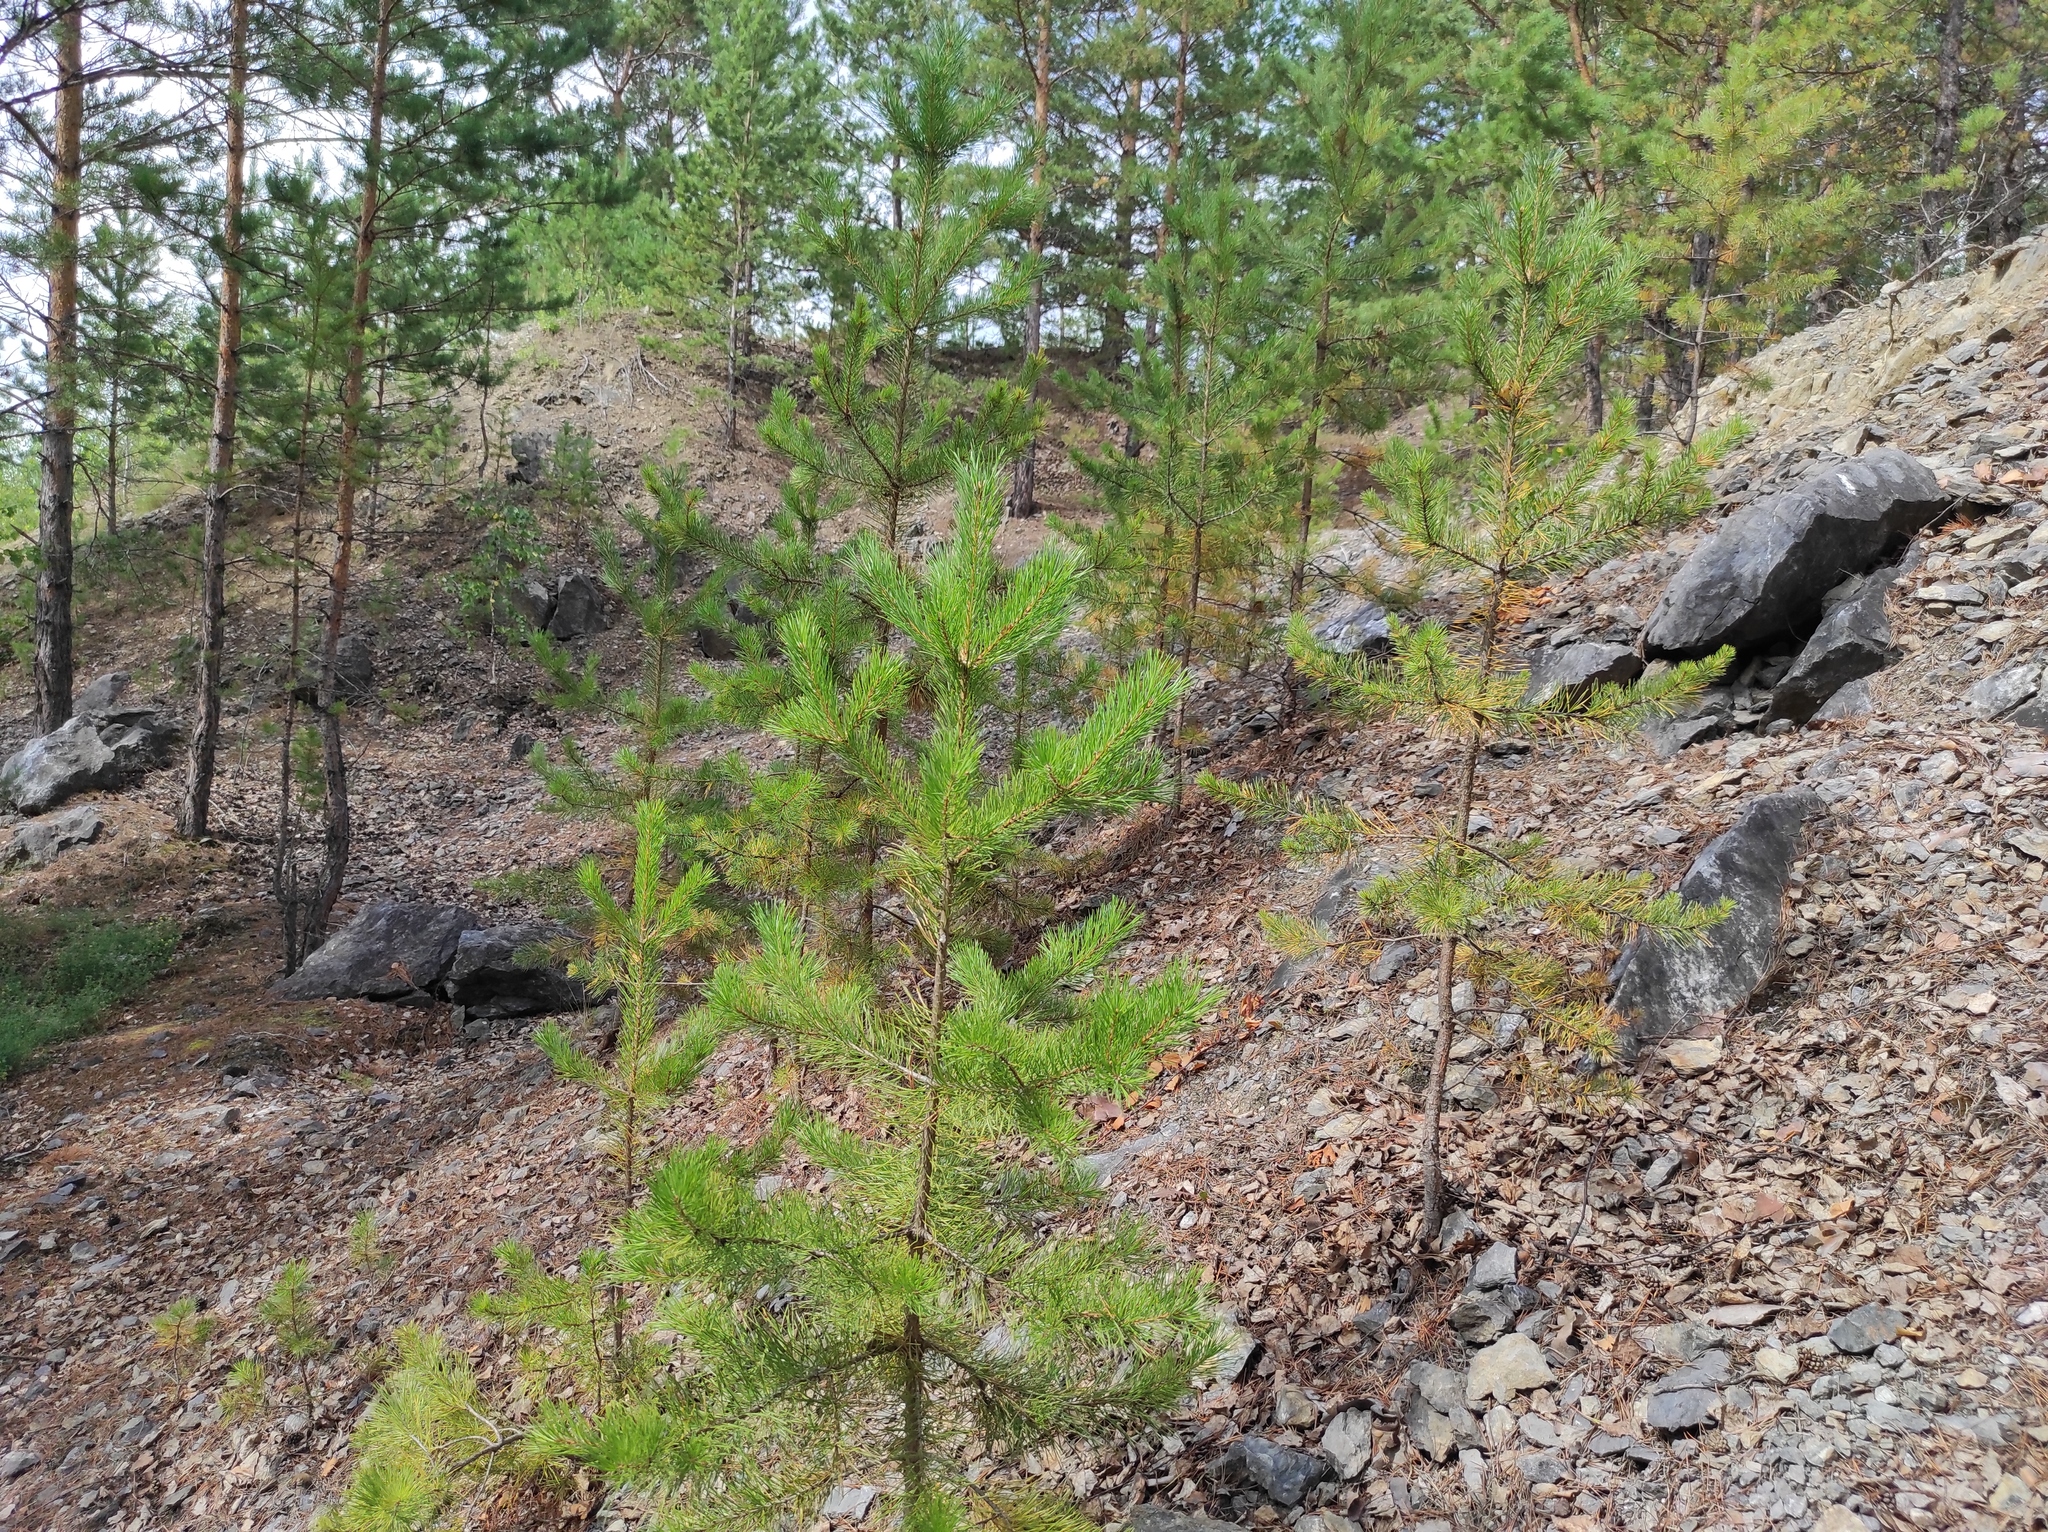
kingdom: Plantae
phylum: Tracheophyta
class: Pinopsida
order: Pinales
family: Pinaceae
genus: Pinus
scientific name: Pinus sylvestris
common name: Scots pine
